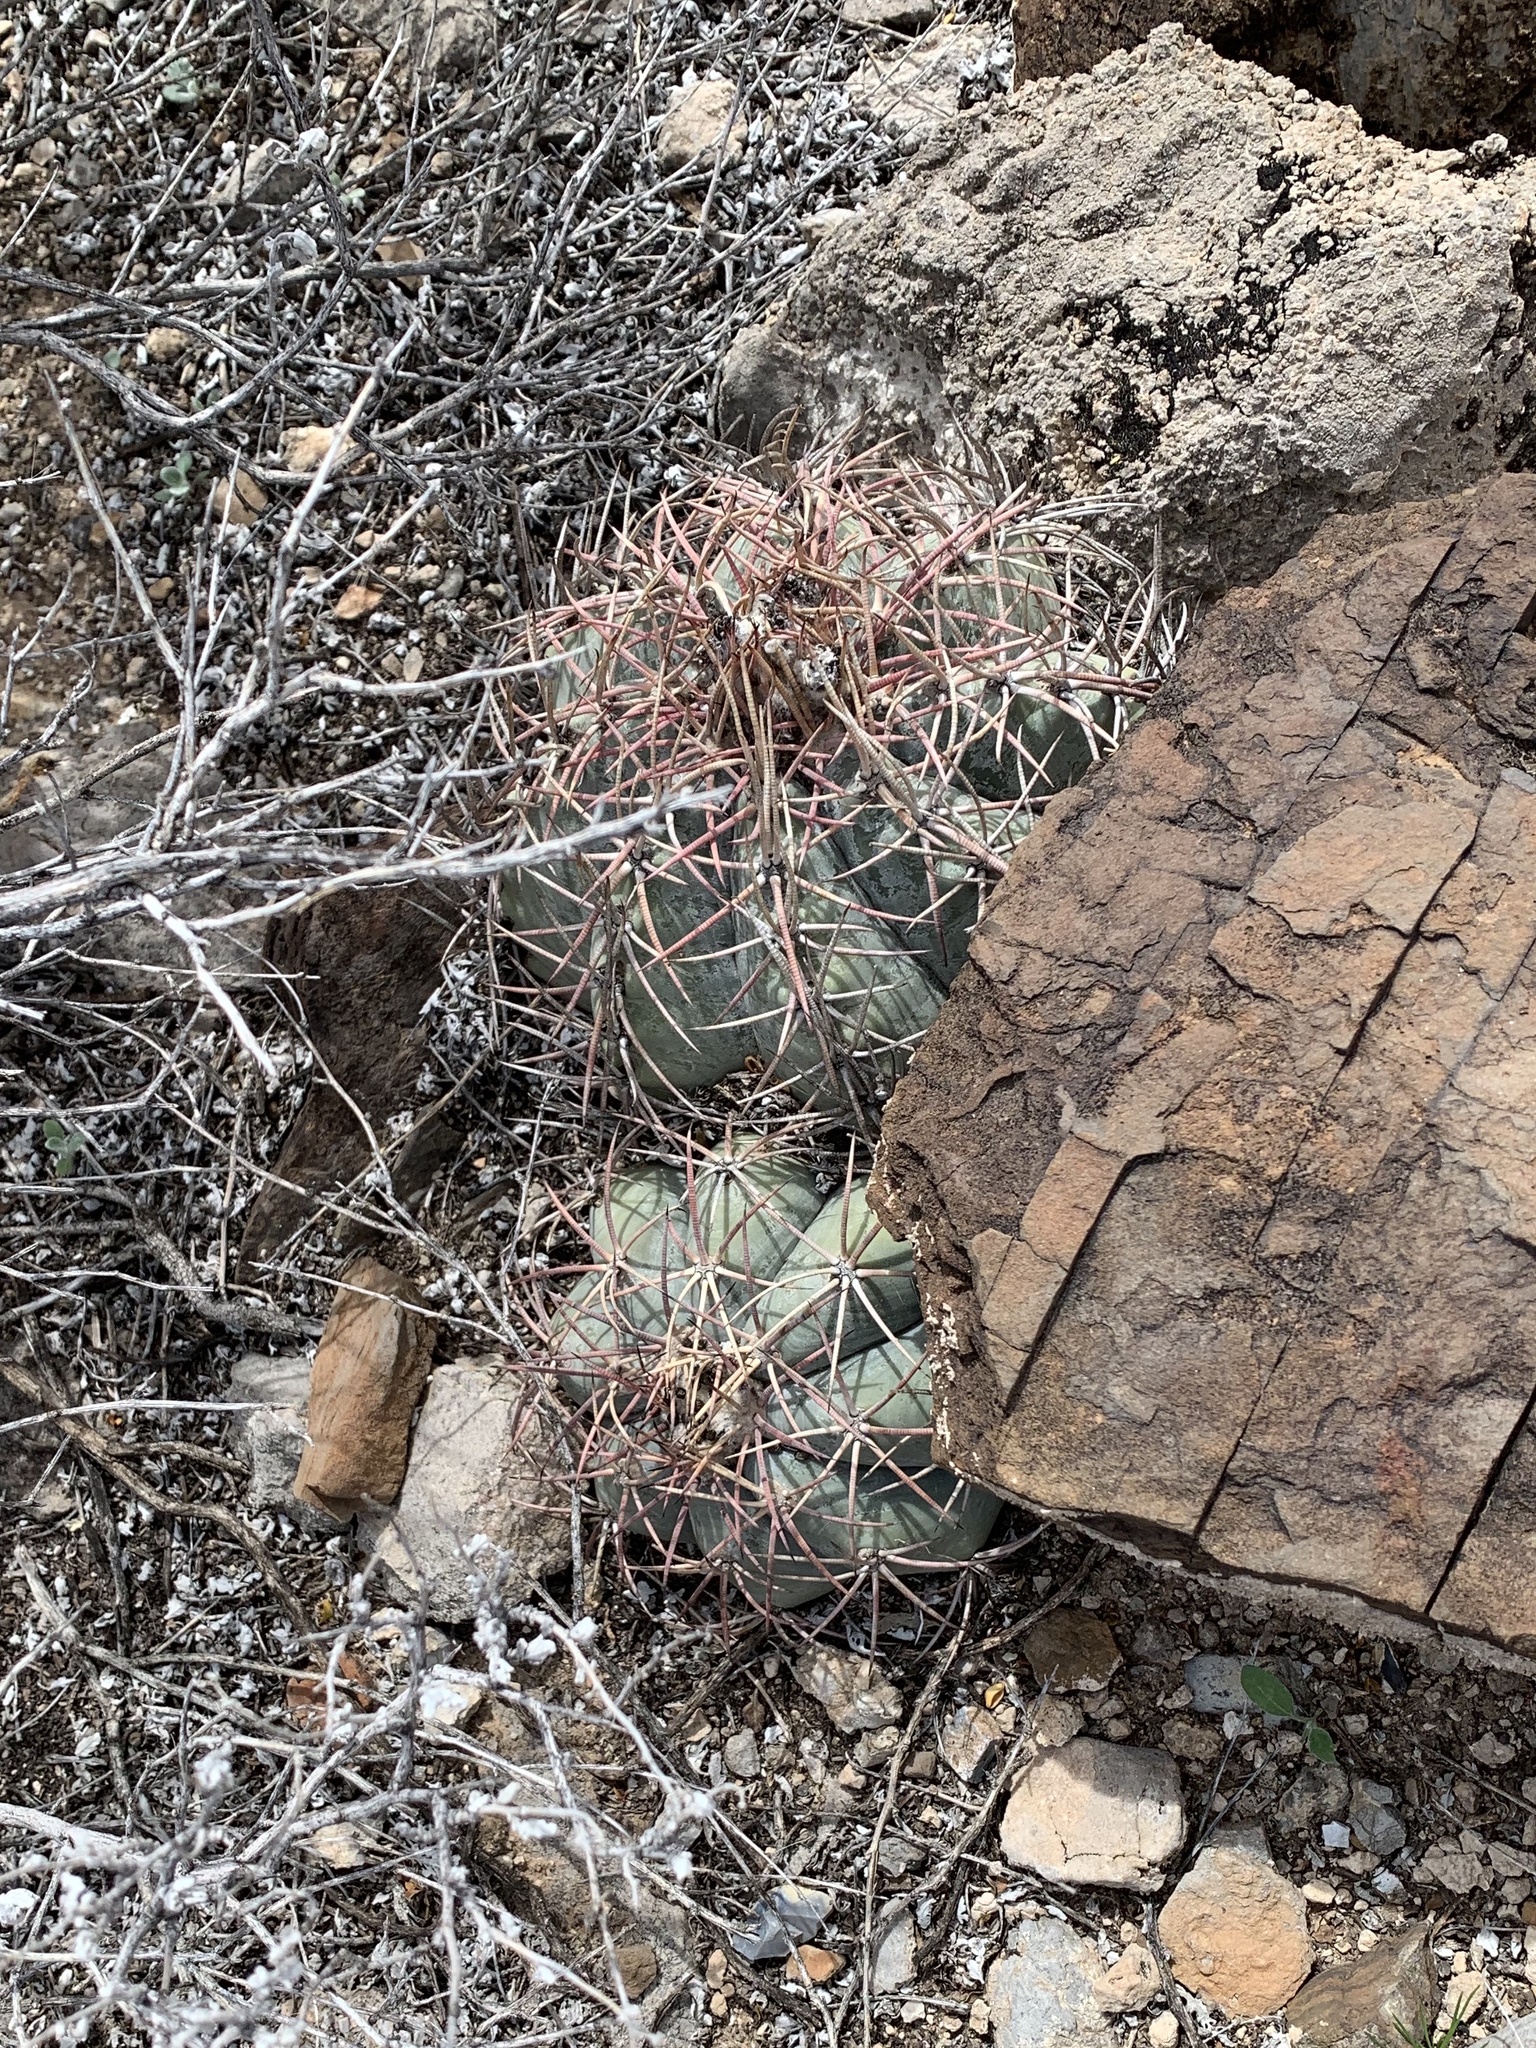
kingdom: Plantae
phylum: Tracheophyta
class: Magnoliopsida
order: Caryophyllales
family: Cactaceae
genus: Echinocactus
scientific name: Echinocactus horizonthalonius
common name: Devilshead
